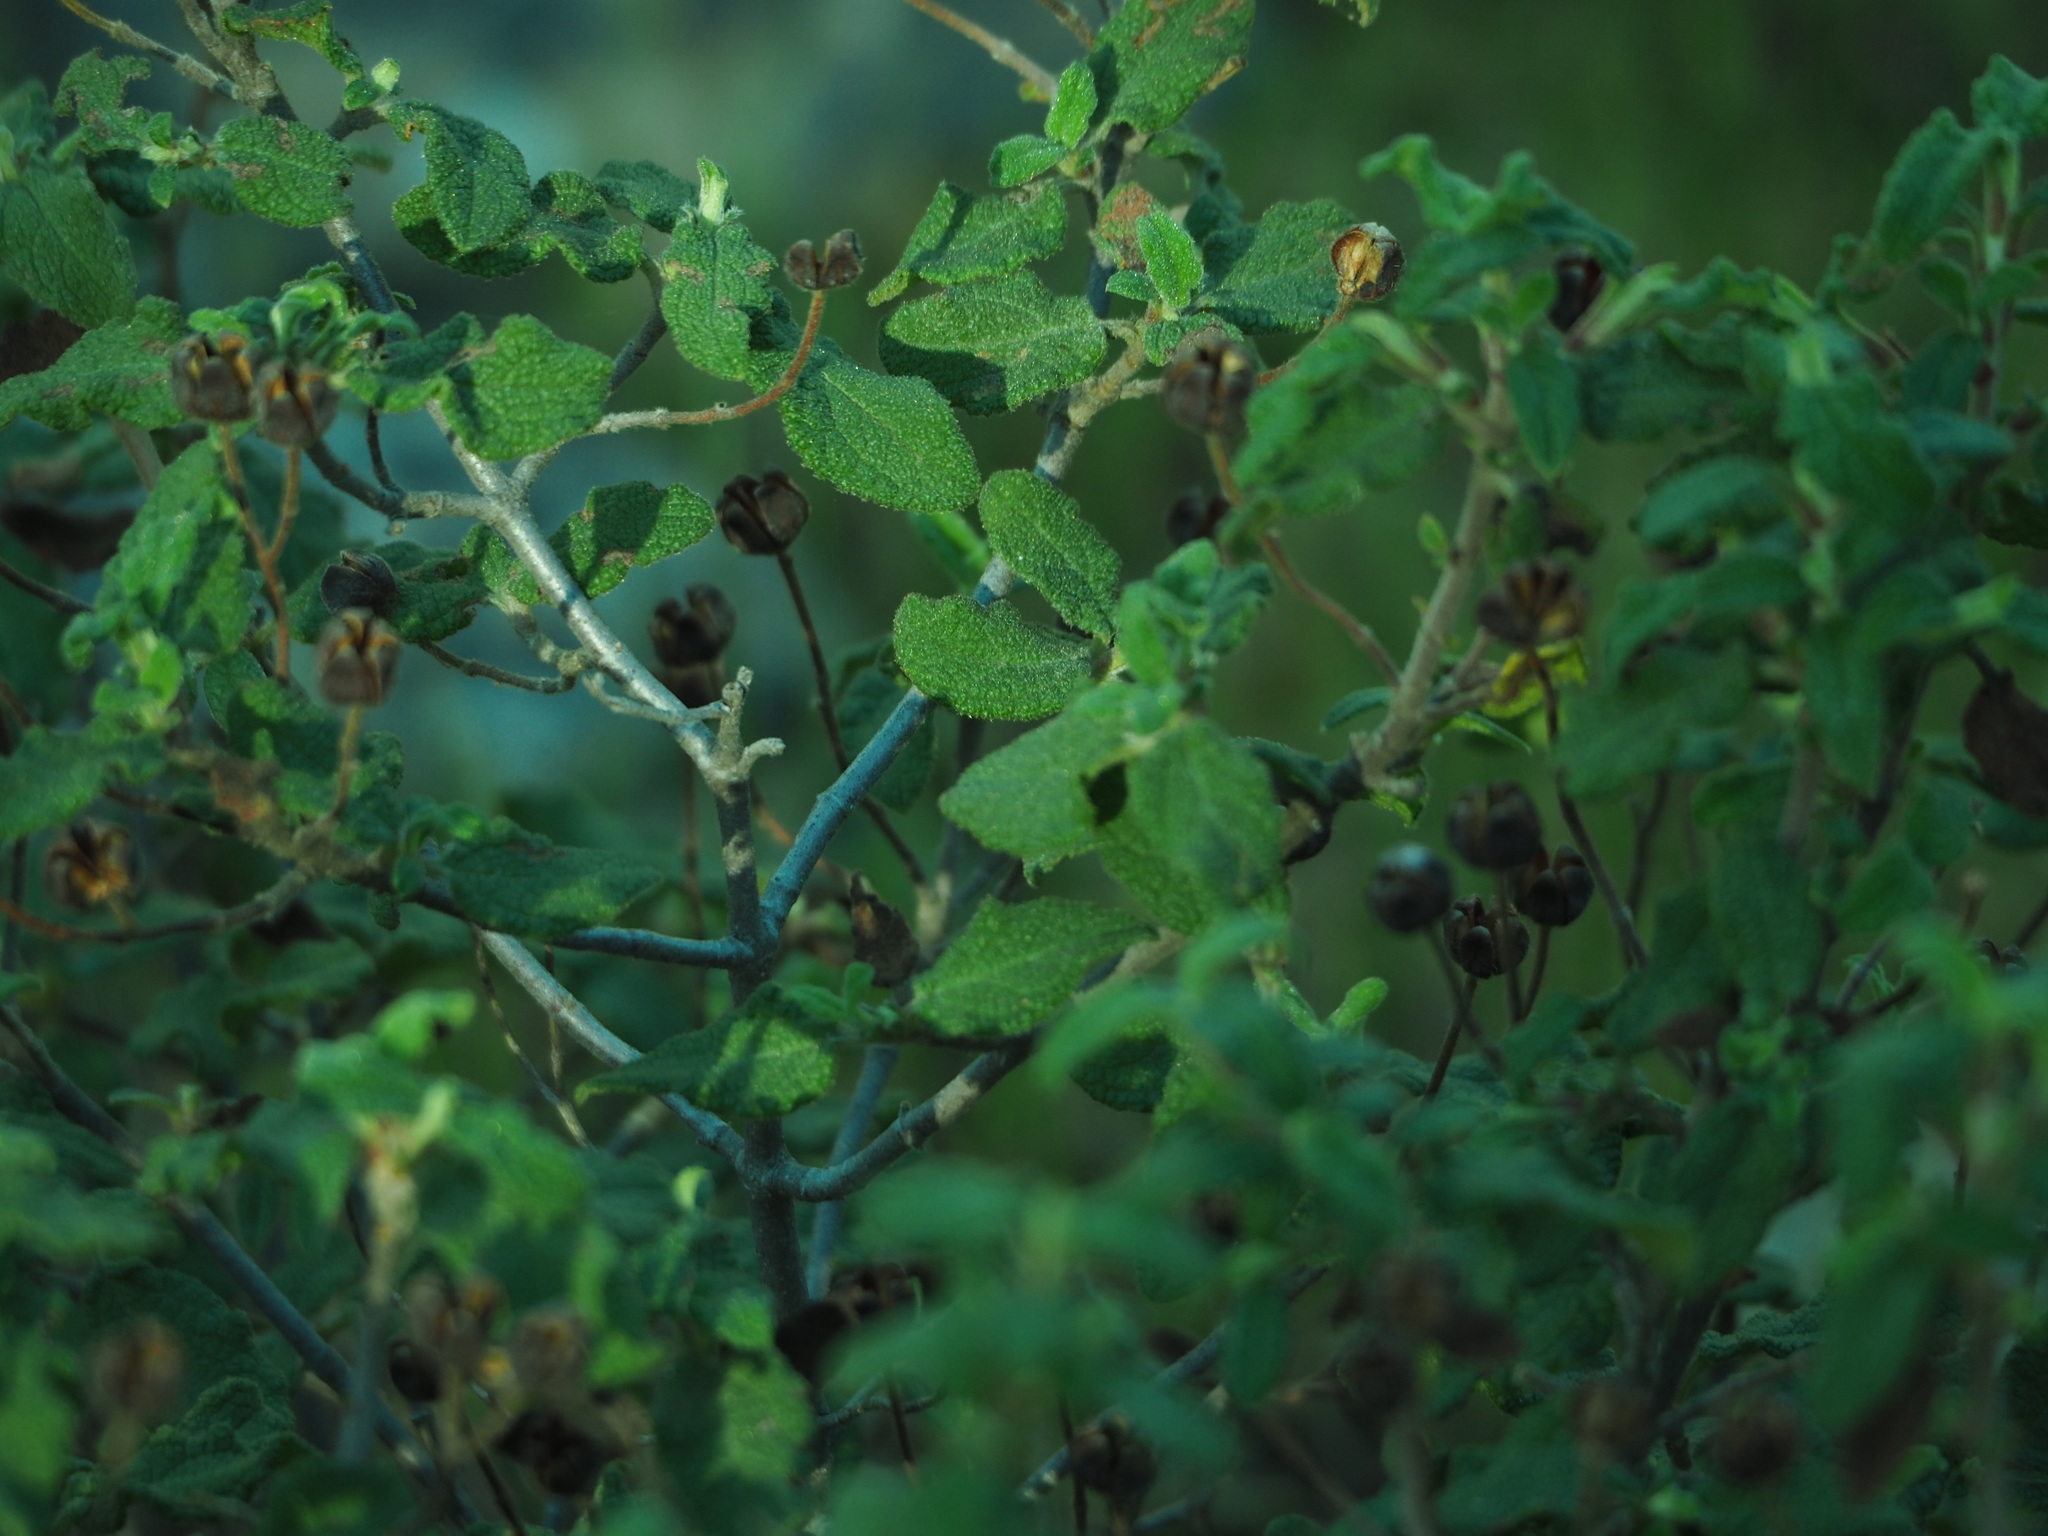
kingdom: Plantae
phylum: Tracheophyta
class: Magnoliopsida
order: Malvales
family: Cistaceae
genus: Cistus
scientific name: Cistus salviifolius
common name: Salvia cistus
